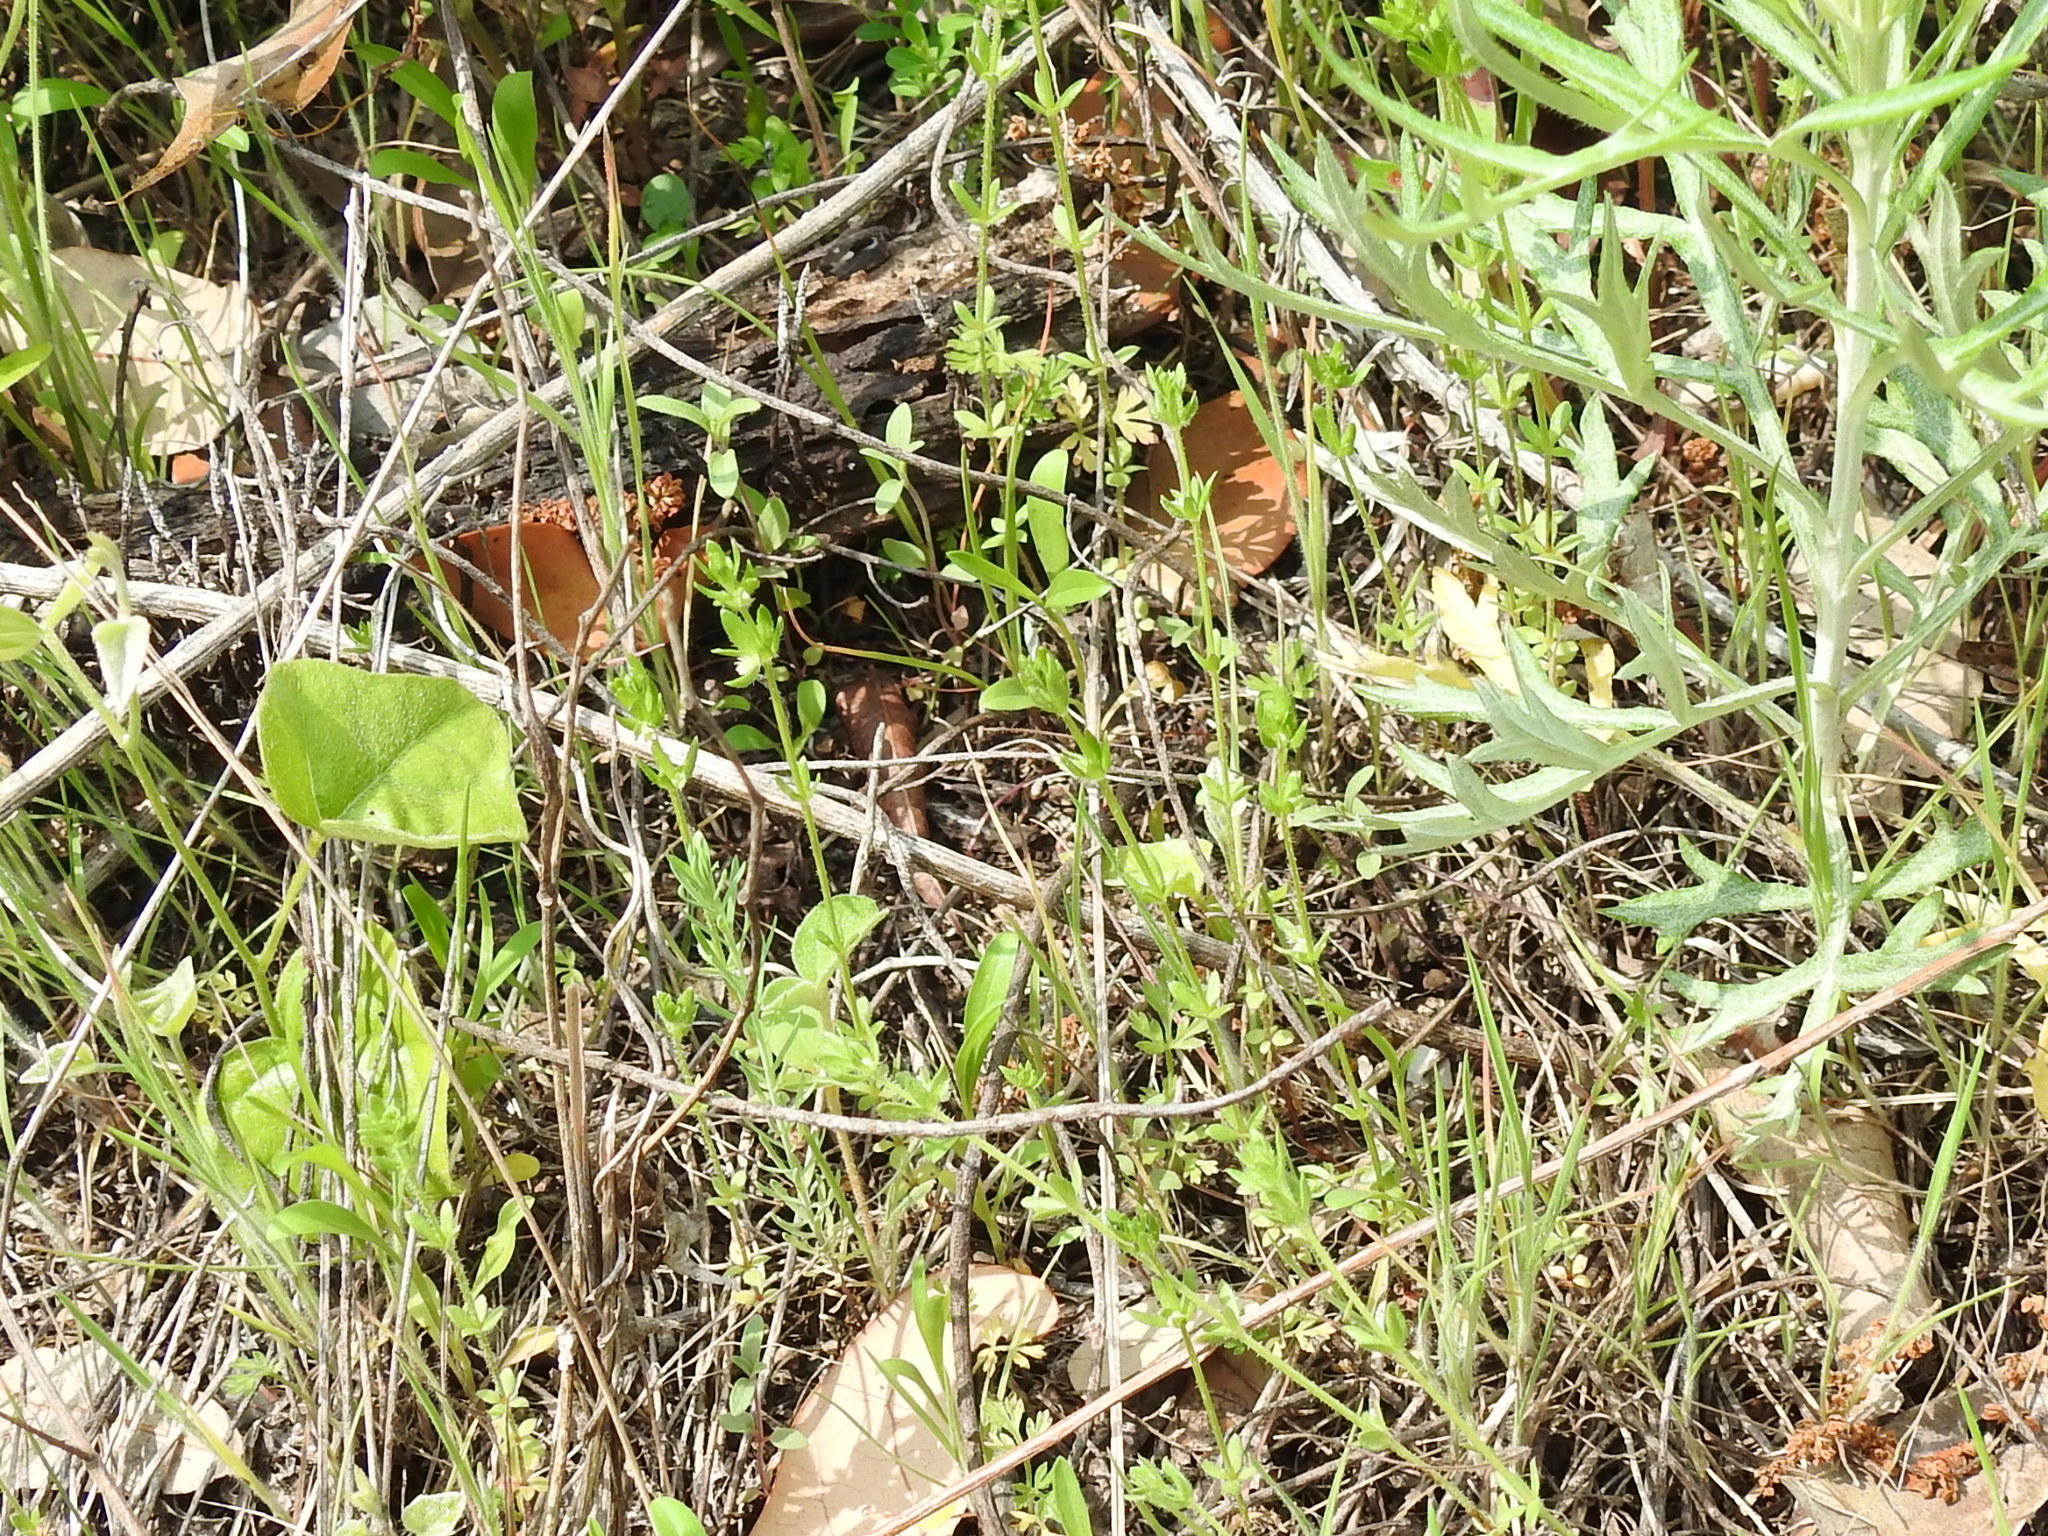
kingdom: Plantae
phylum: Tracheophyta
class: Magnoliopsida
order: Gentianales
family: Rubiaceae
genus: Galium
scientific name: Galium virgatum
